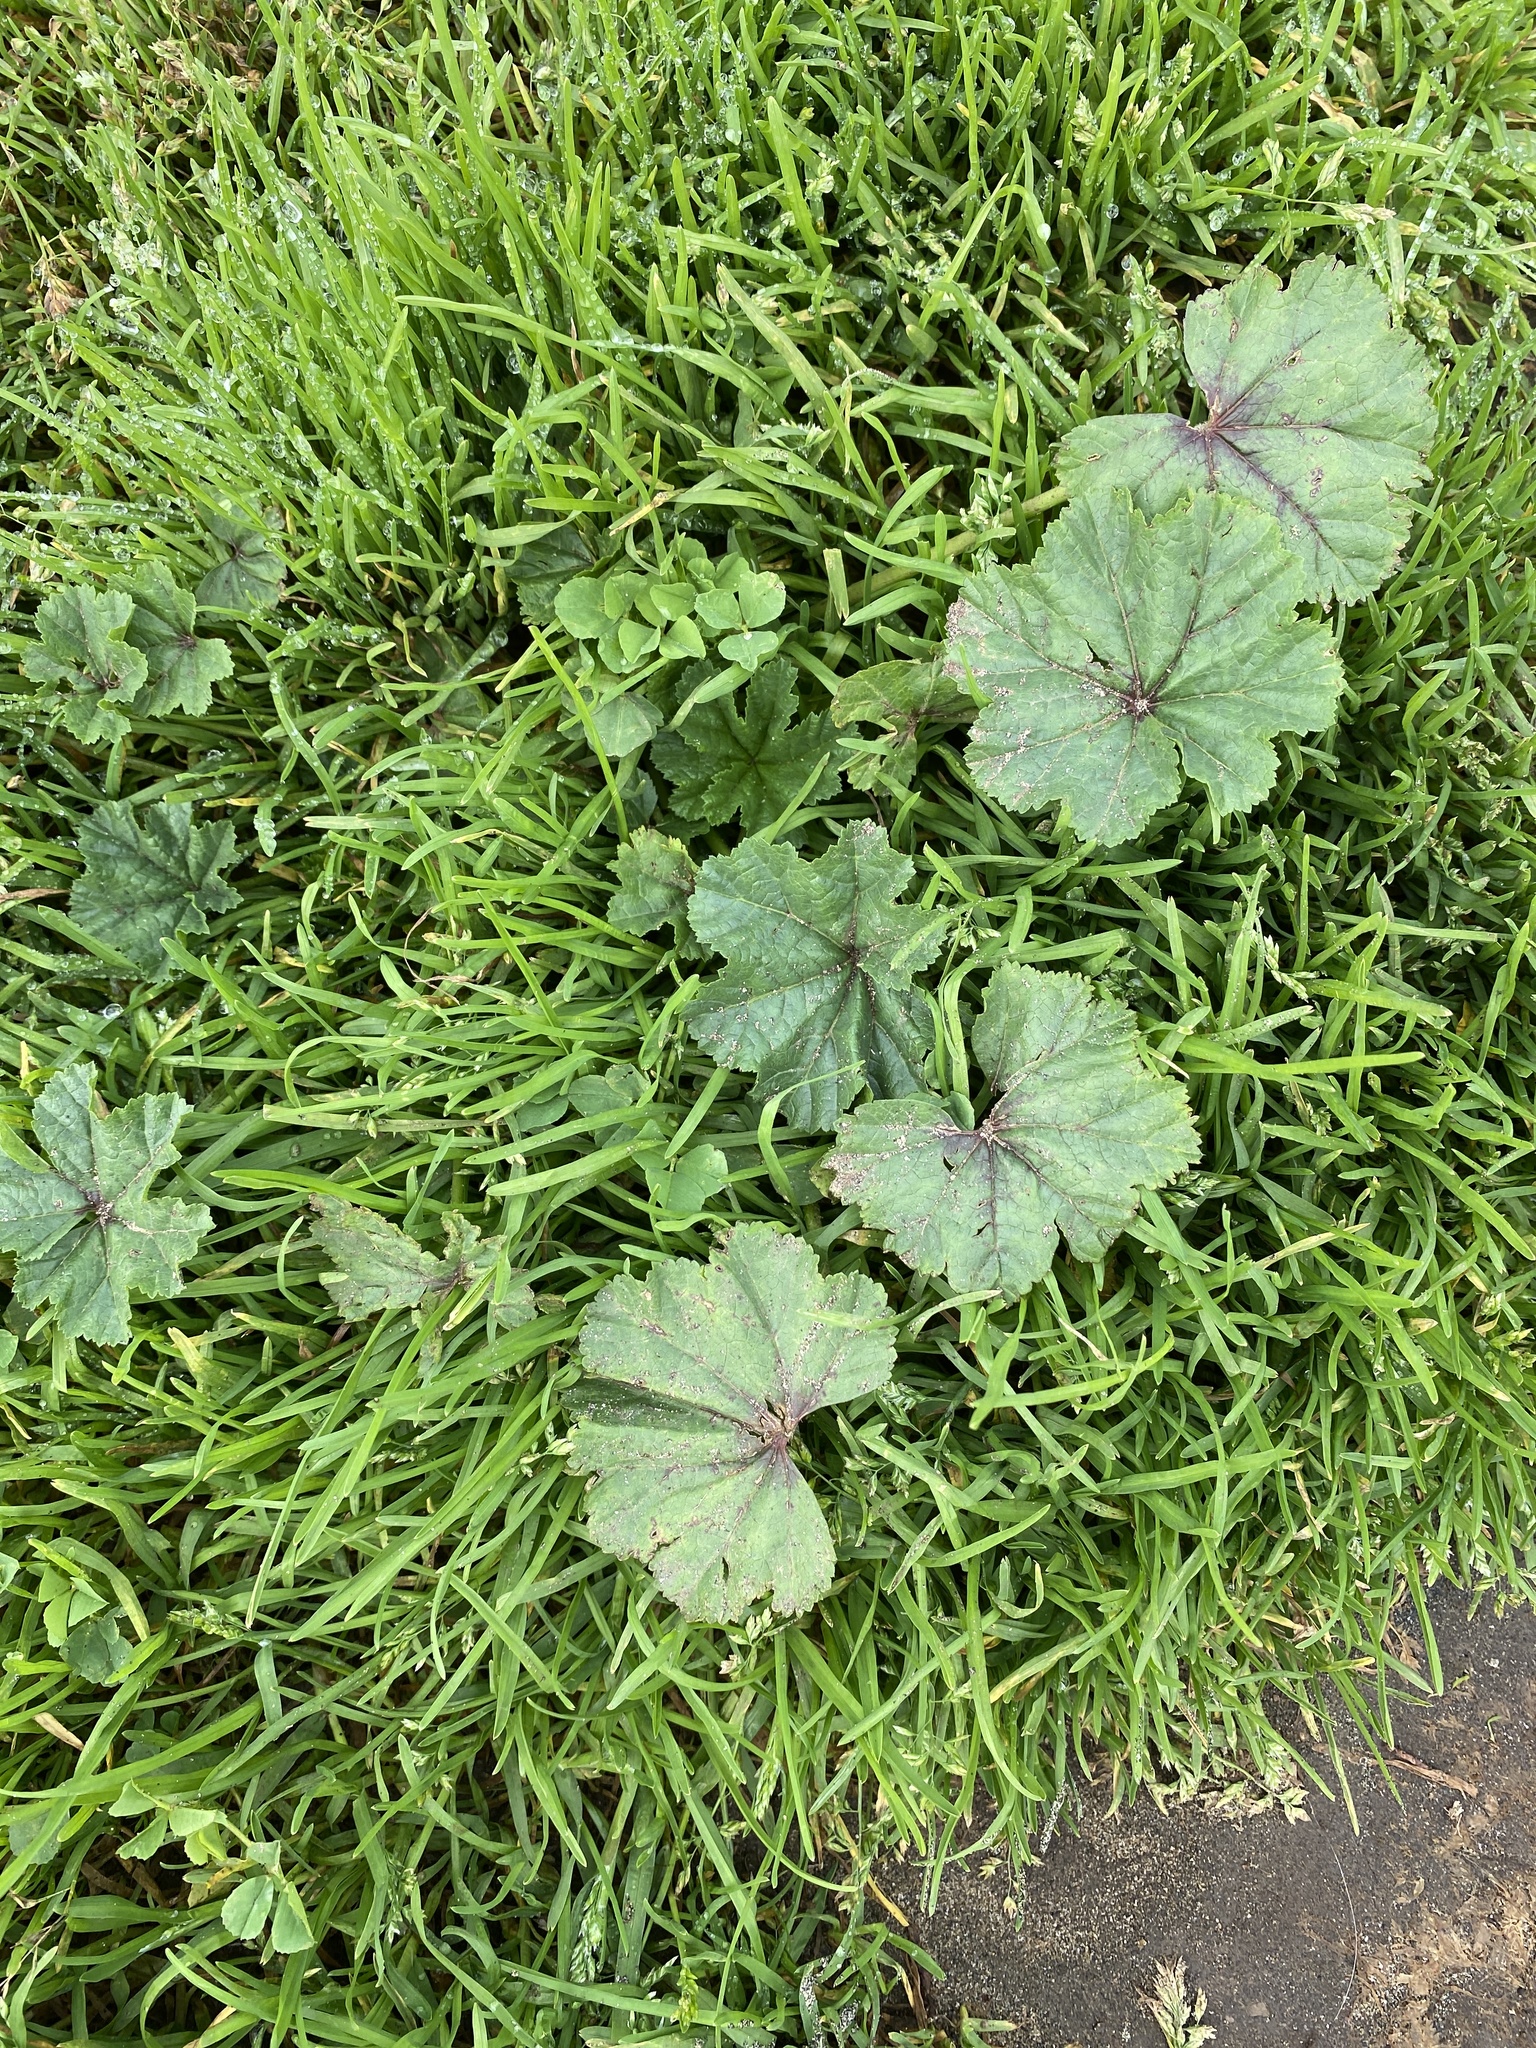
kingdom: Plantae
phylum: Tracheophyta
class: Magnoliopsida
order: Malvales
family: Malvaceae
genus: Malva
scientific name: Malva
